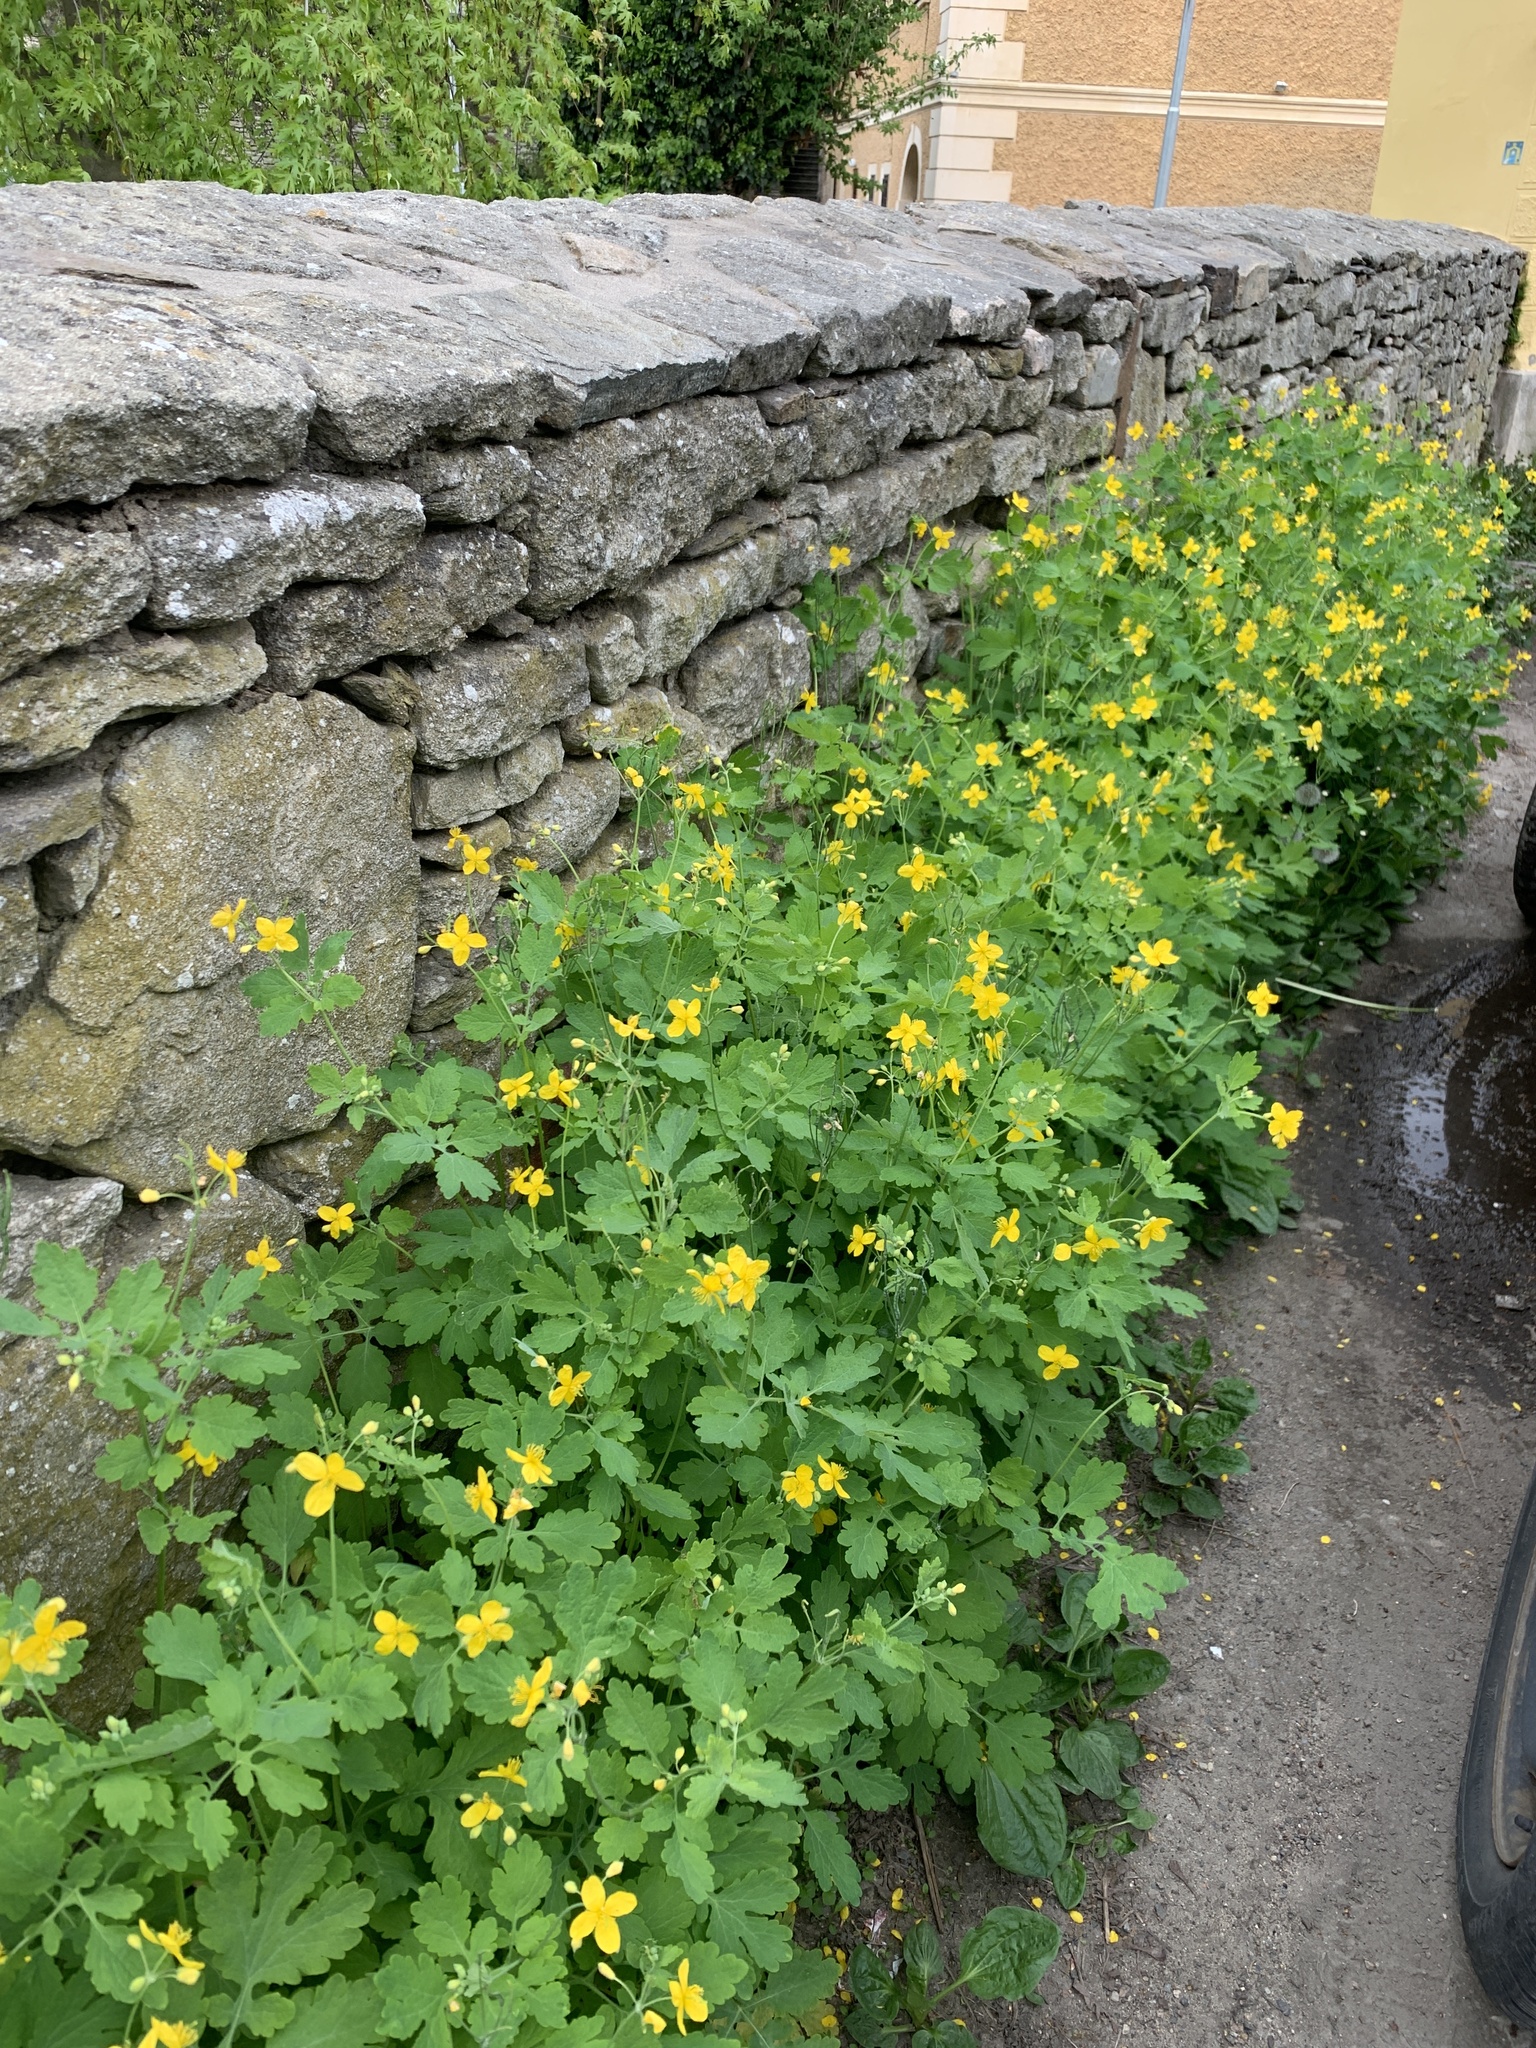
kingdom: Plantae
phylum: Tracheophyta
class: Magnoliopsida
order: Ranunculales
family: Papaveraceae
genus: Chelidonium
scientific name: Chelidonium majus
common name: Greater celandine
